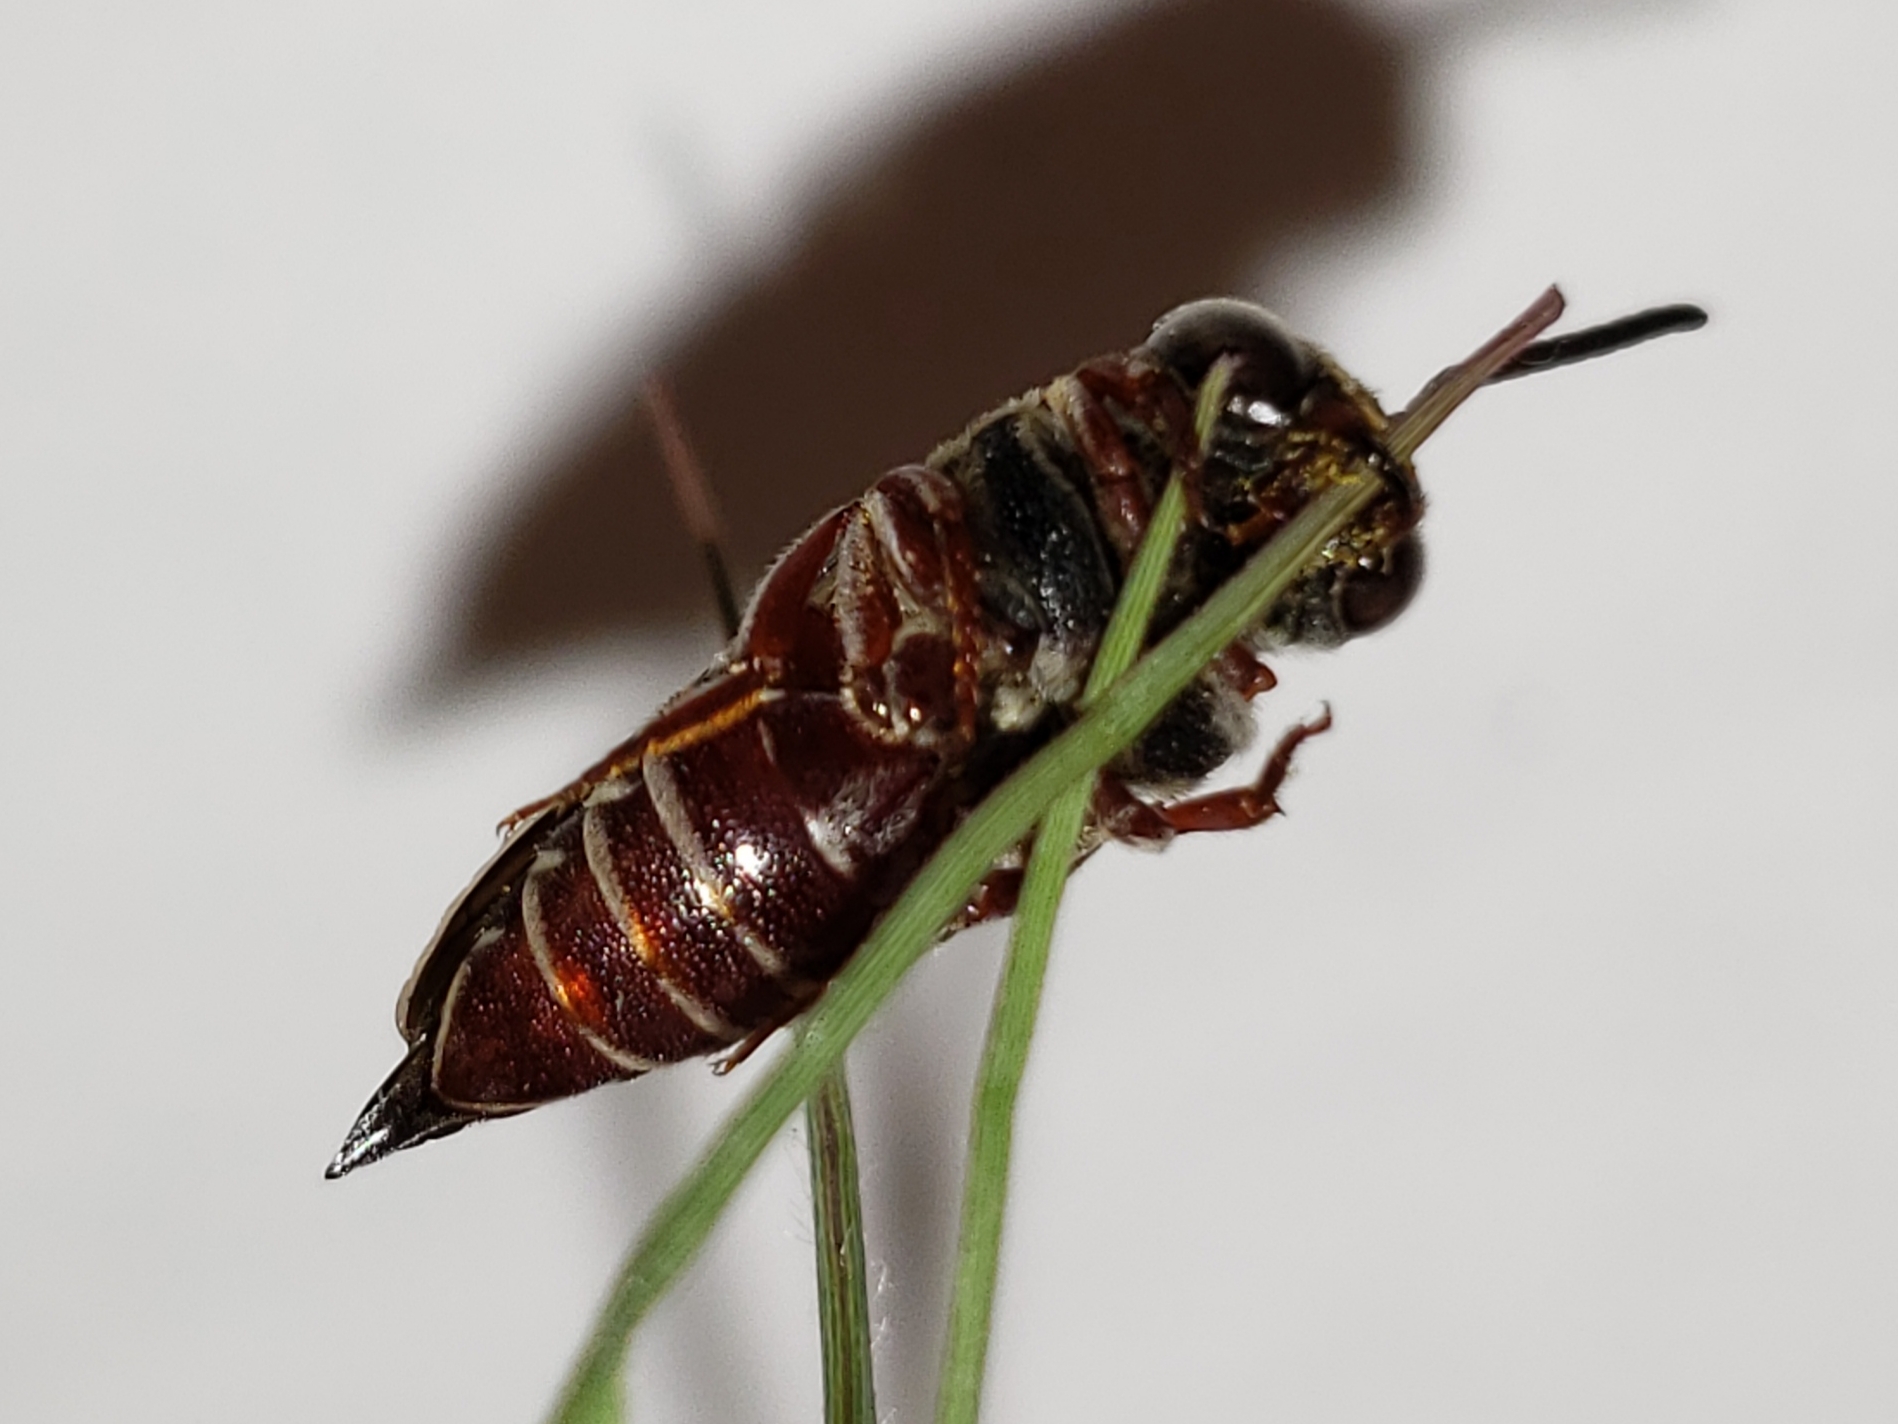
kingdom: Animalia
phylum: Arthropoda
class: Insecta
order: Hymenoptera
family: Megachilidae
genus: Coelioxys
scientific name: Coelioxys slossoni
